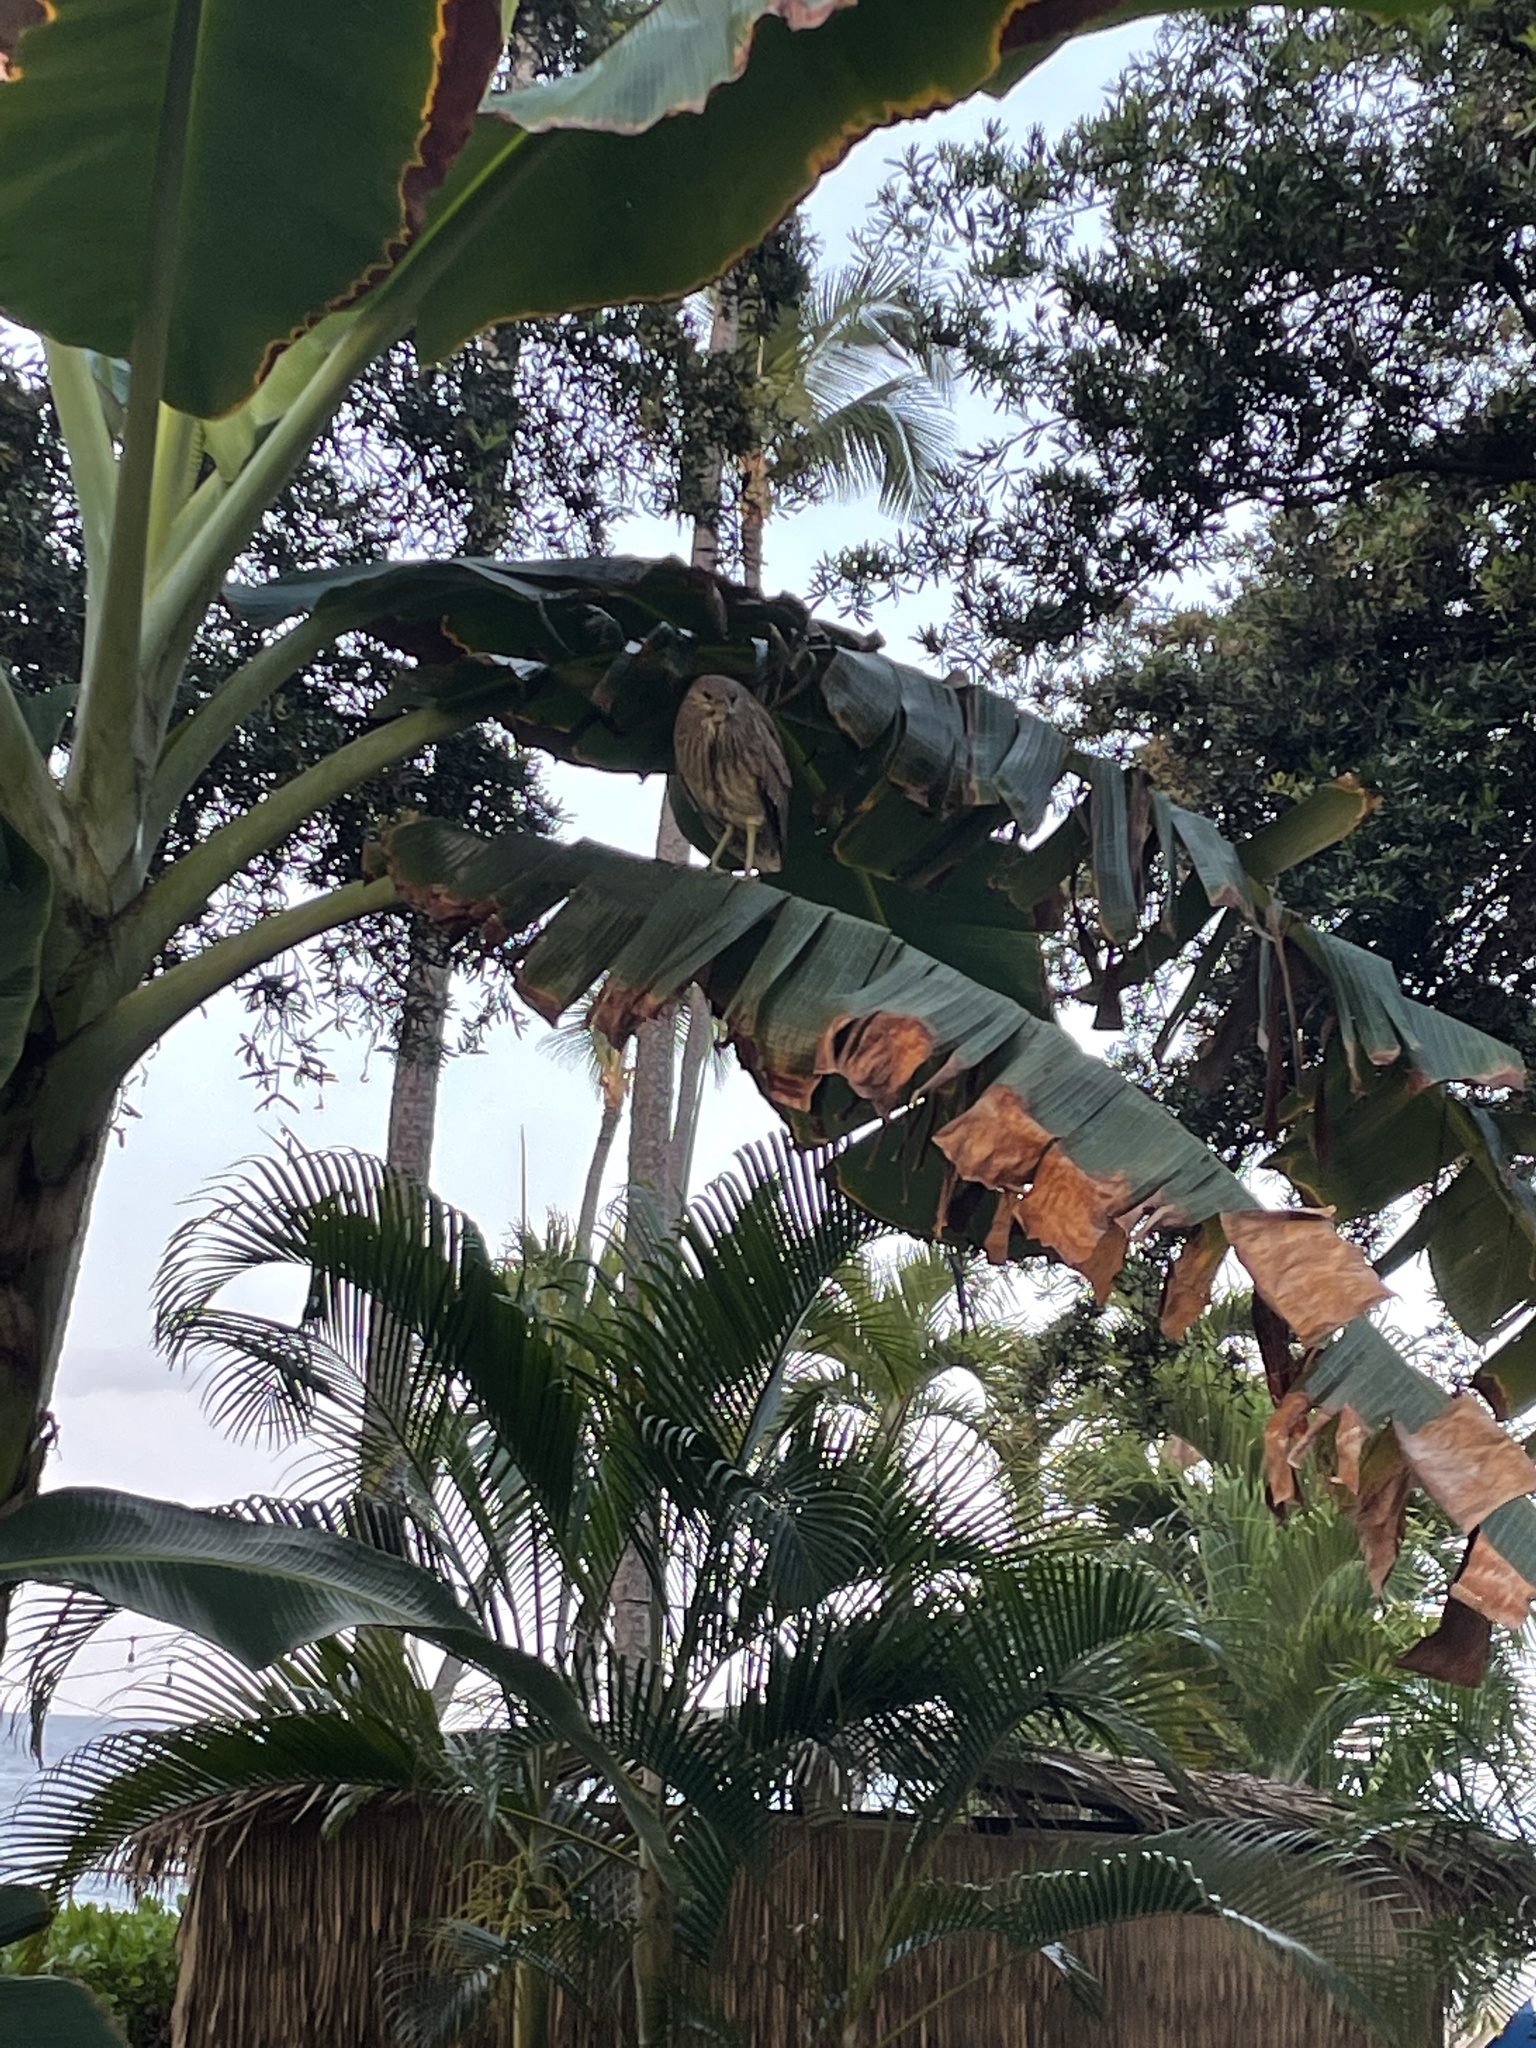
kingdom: Animalia
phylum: Chordata
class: Aves
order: Pelecaniformes
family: Ardeidae
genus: Nycticorax
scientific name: Nycticorax nycticorax
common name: Black-crowned night heron
